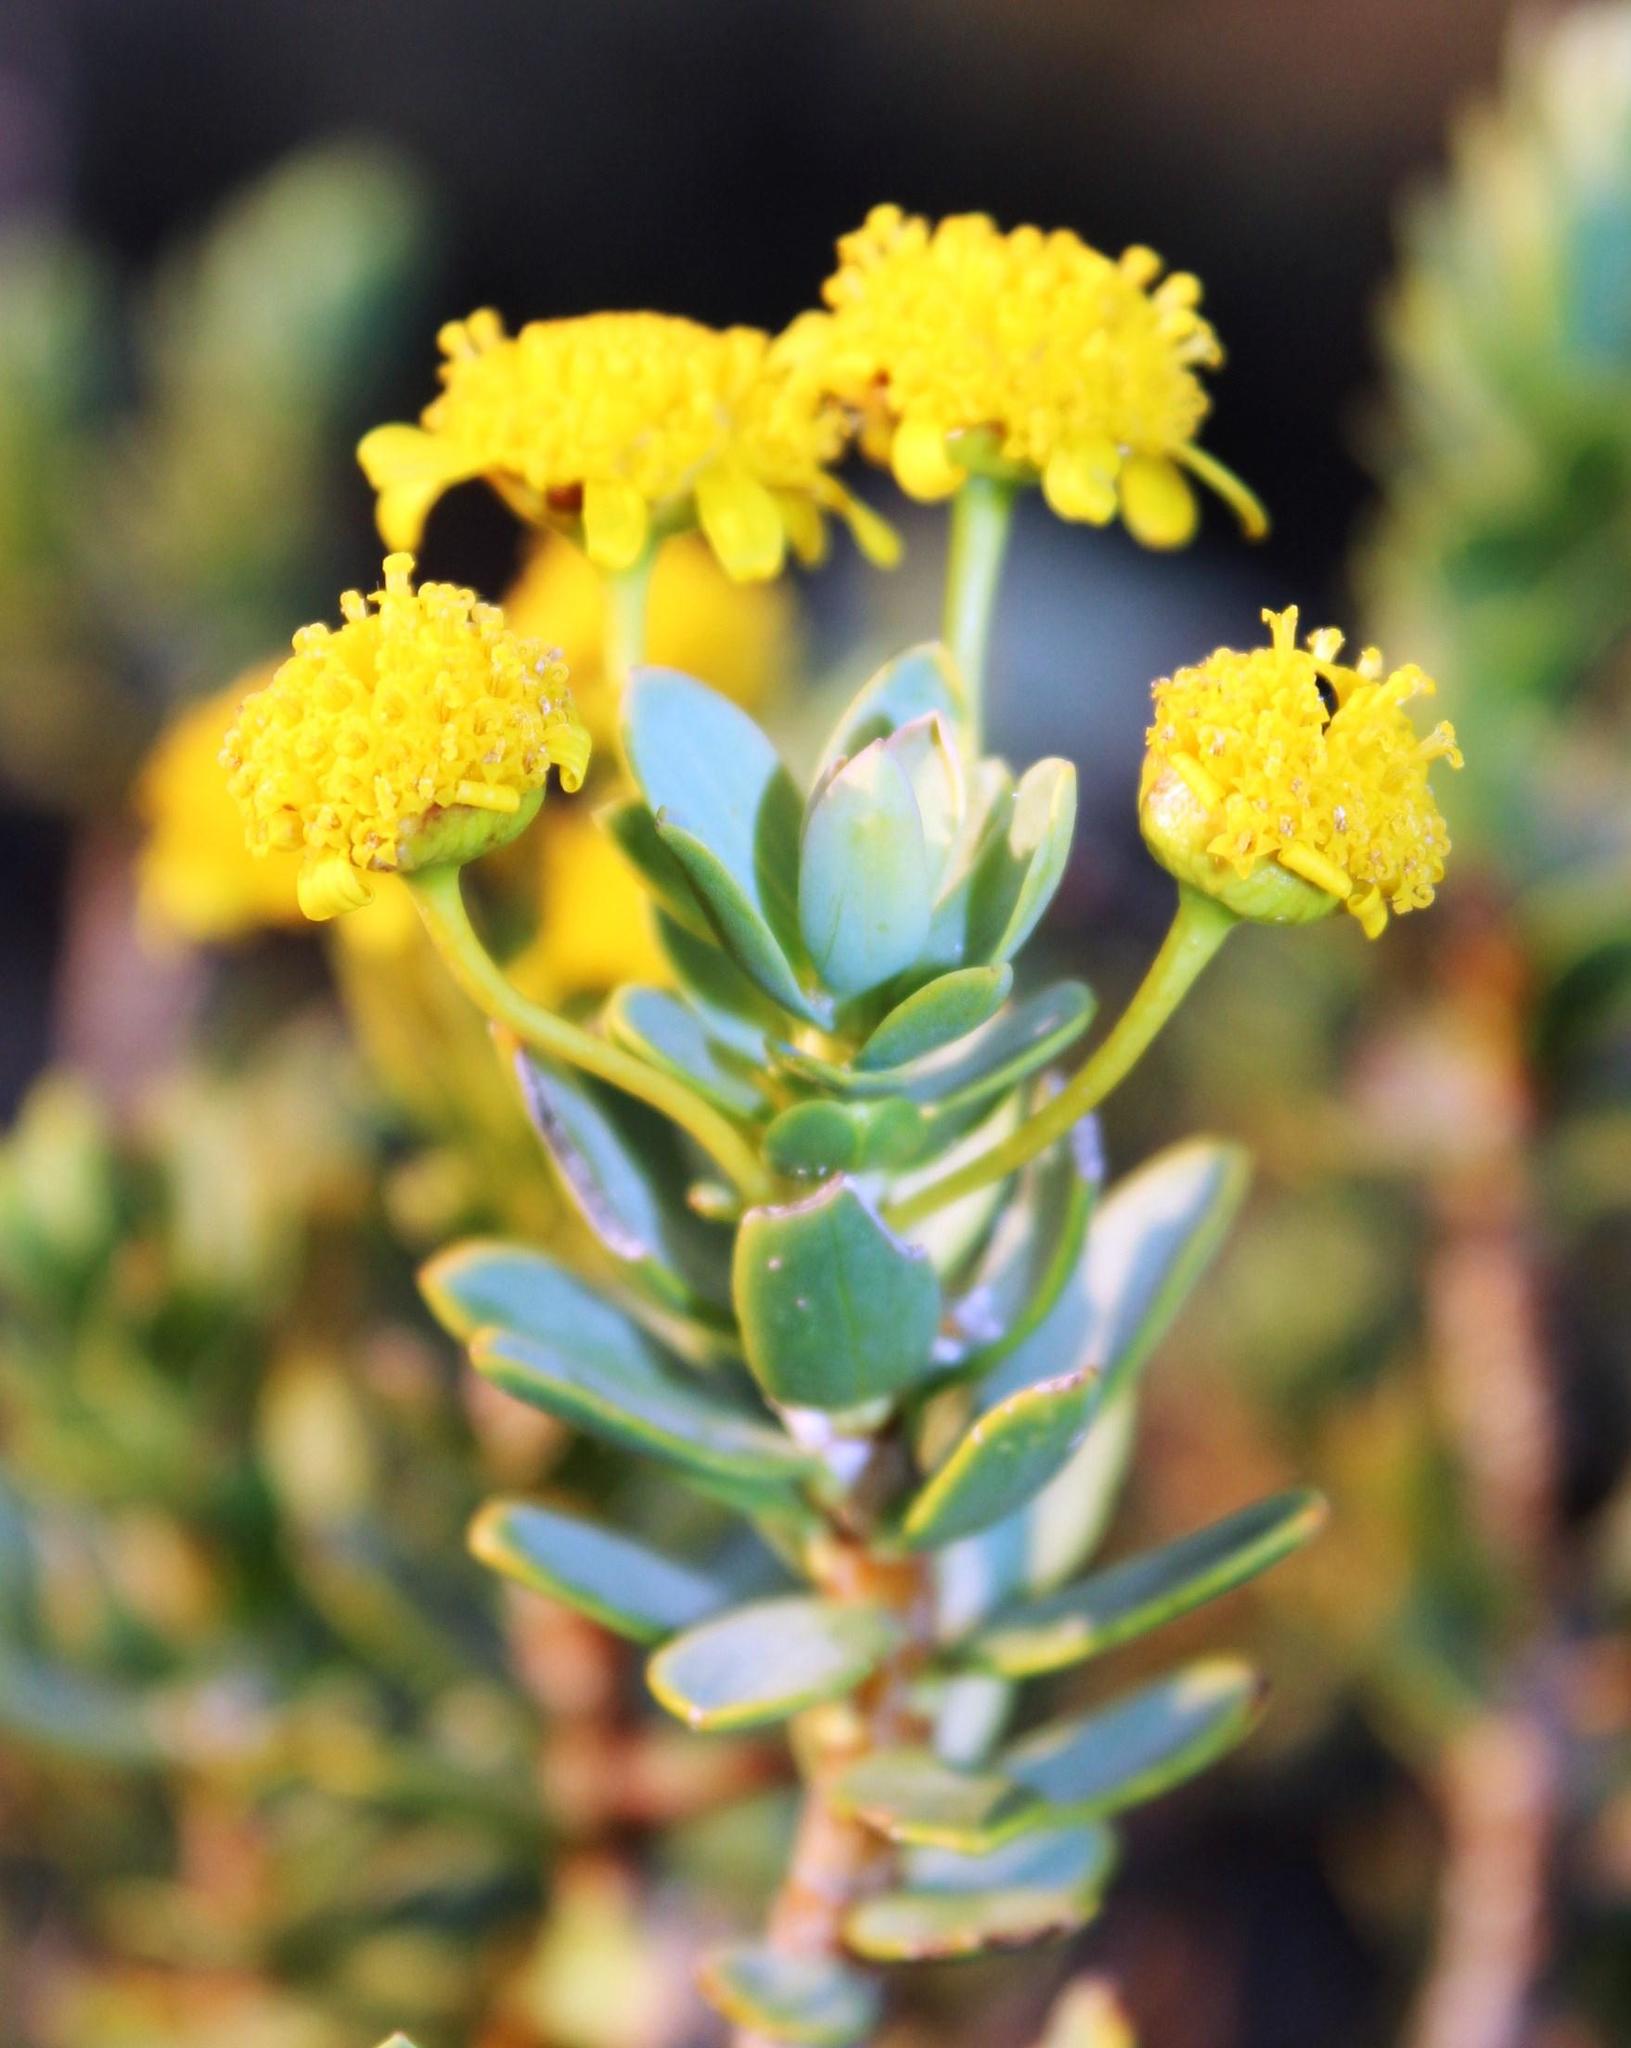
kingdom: Plantae
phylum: Tracheophyta
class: Magnoliopsida
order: Asterales
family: Asteraceae
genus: Euryops
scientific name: Euryops lateriflorus
